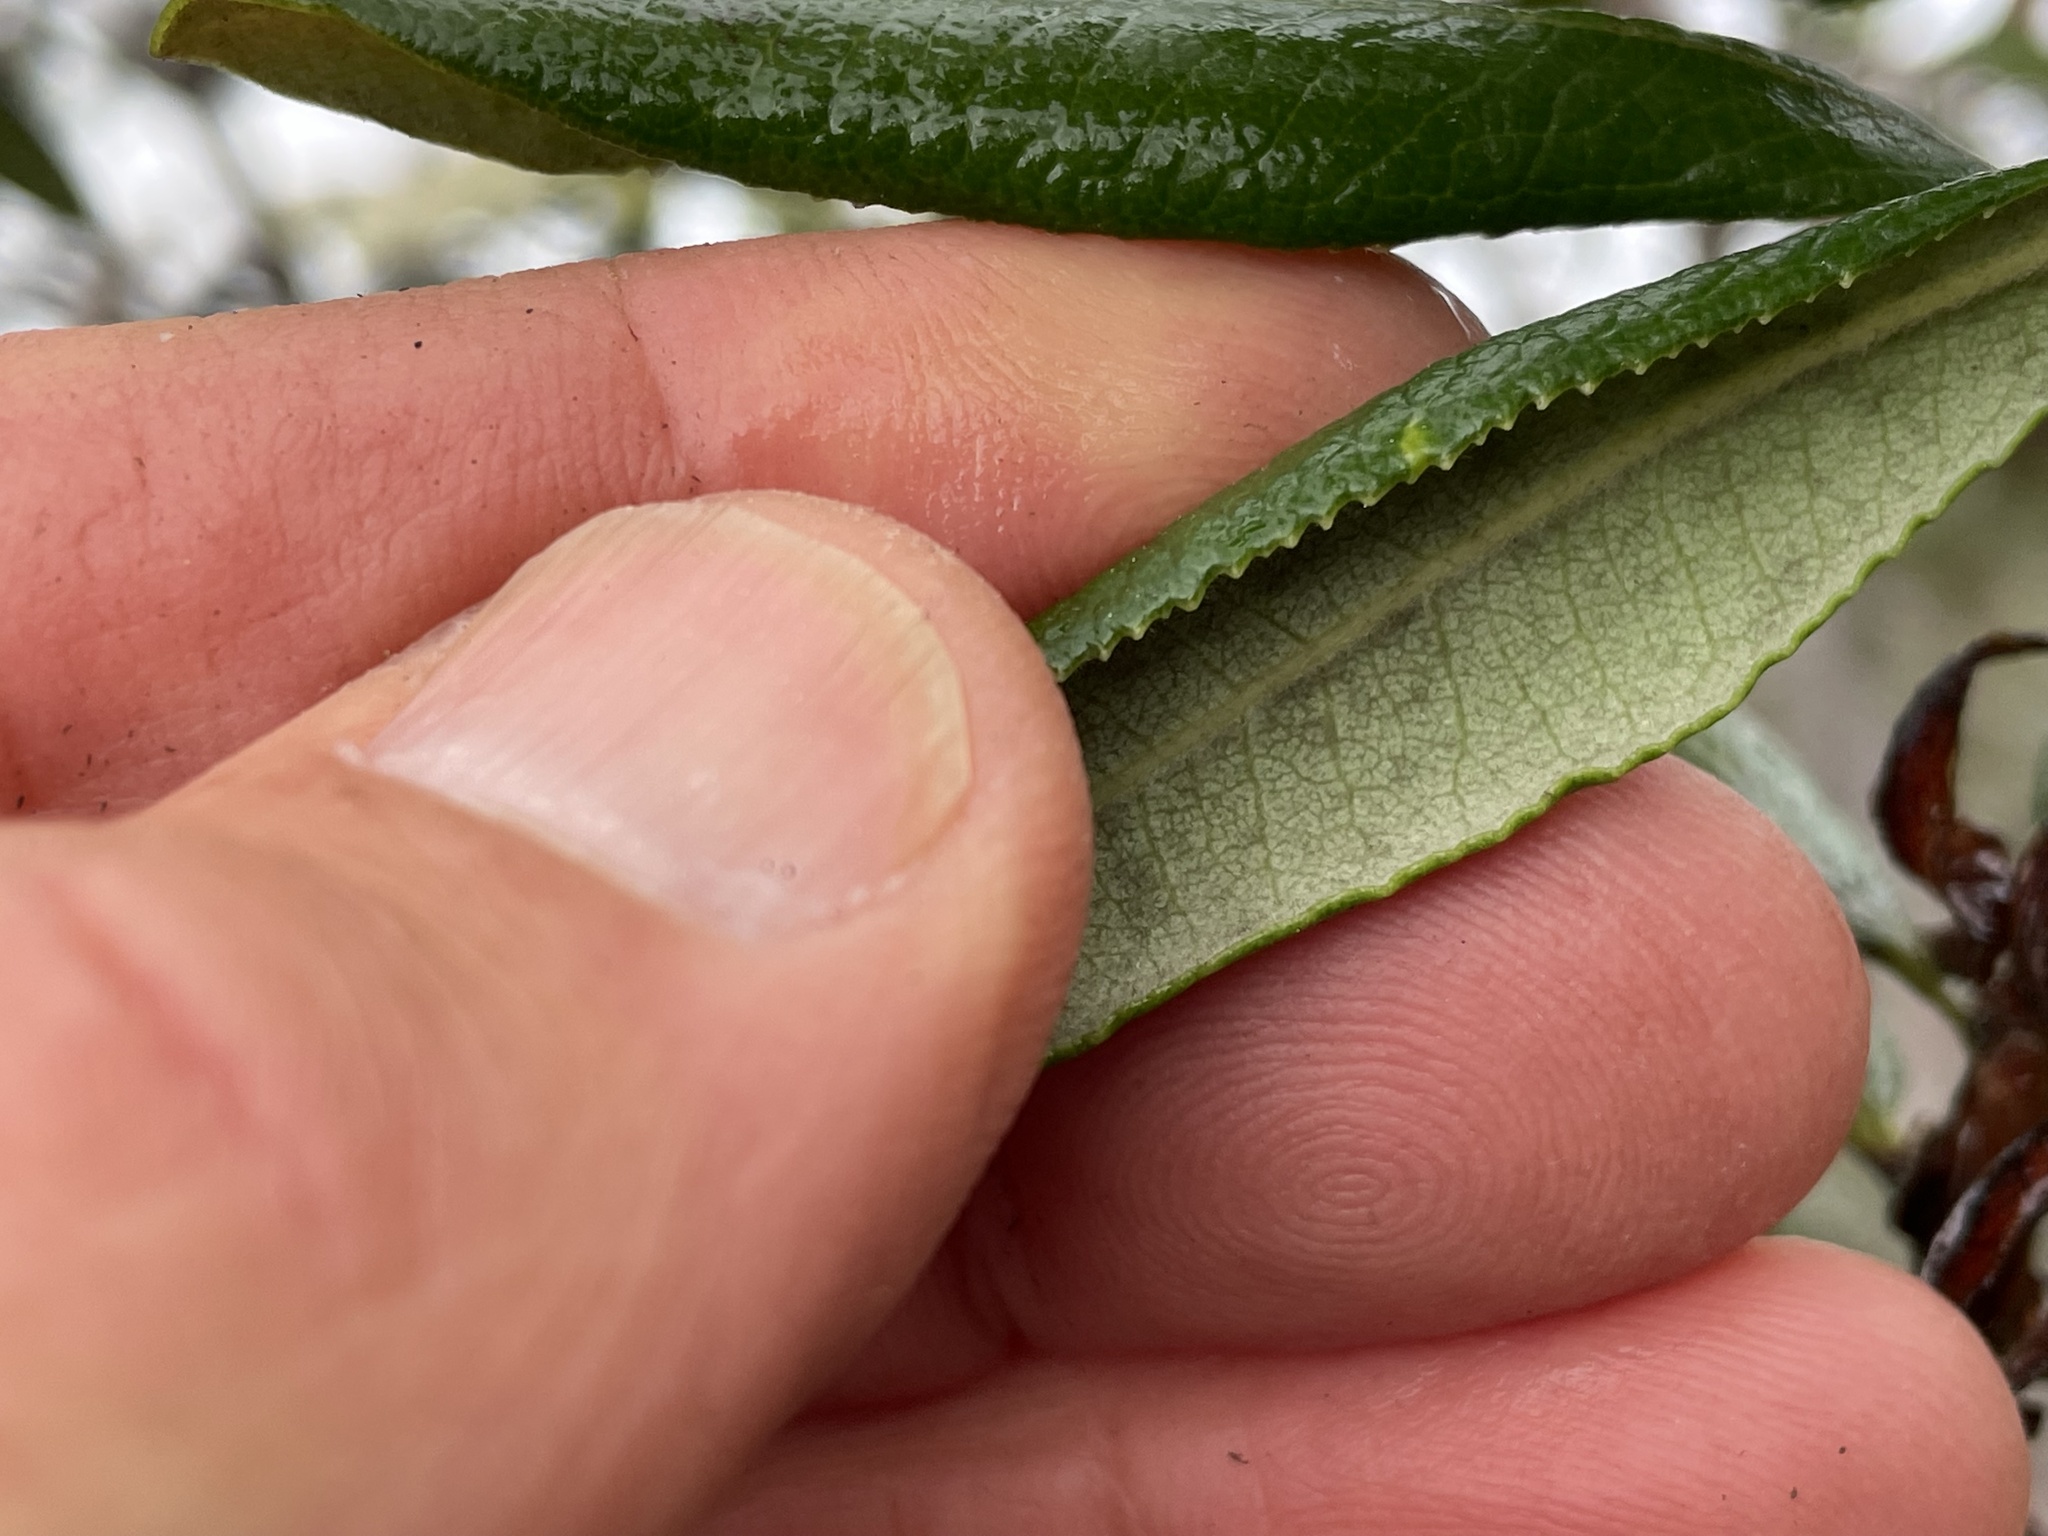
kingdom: Plantae
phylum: Tracheophyta
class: Magnoliopsida
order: Ericales
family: Ericaceae
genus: Comarostaphylis
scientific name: Comarostaphylis diversifolia
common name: Summer-holly
